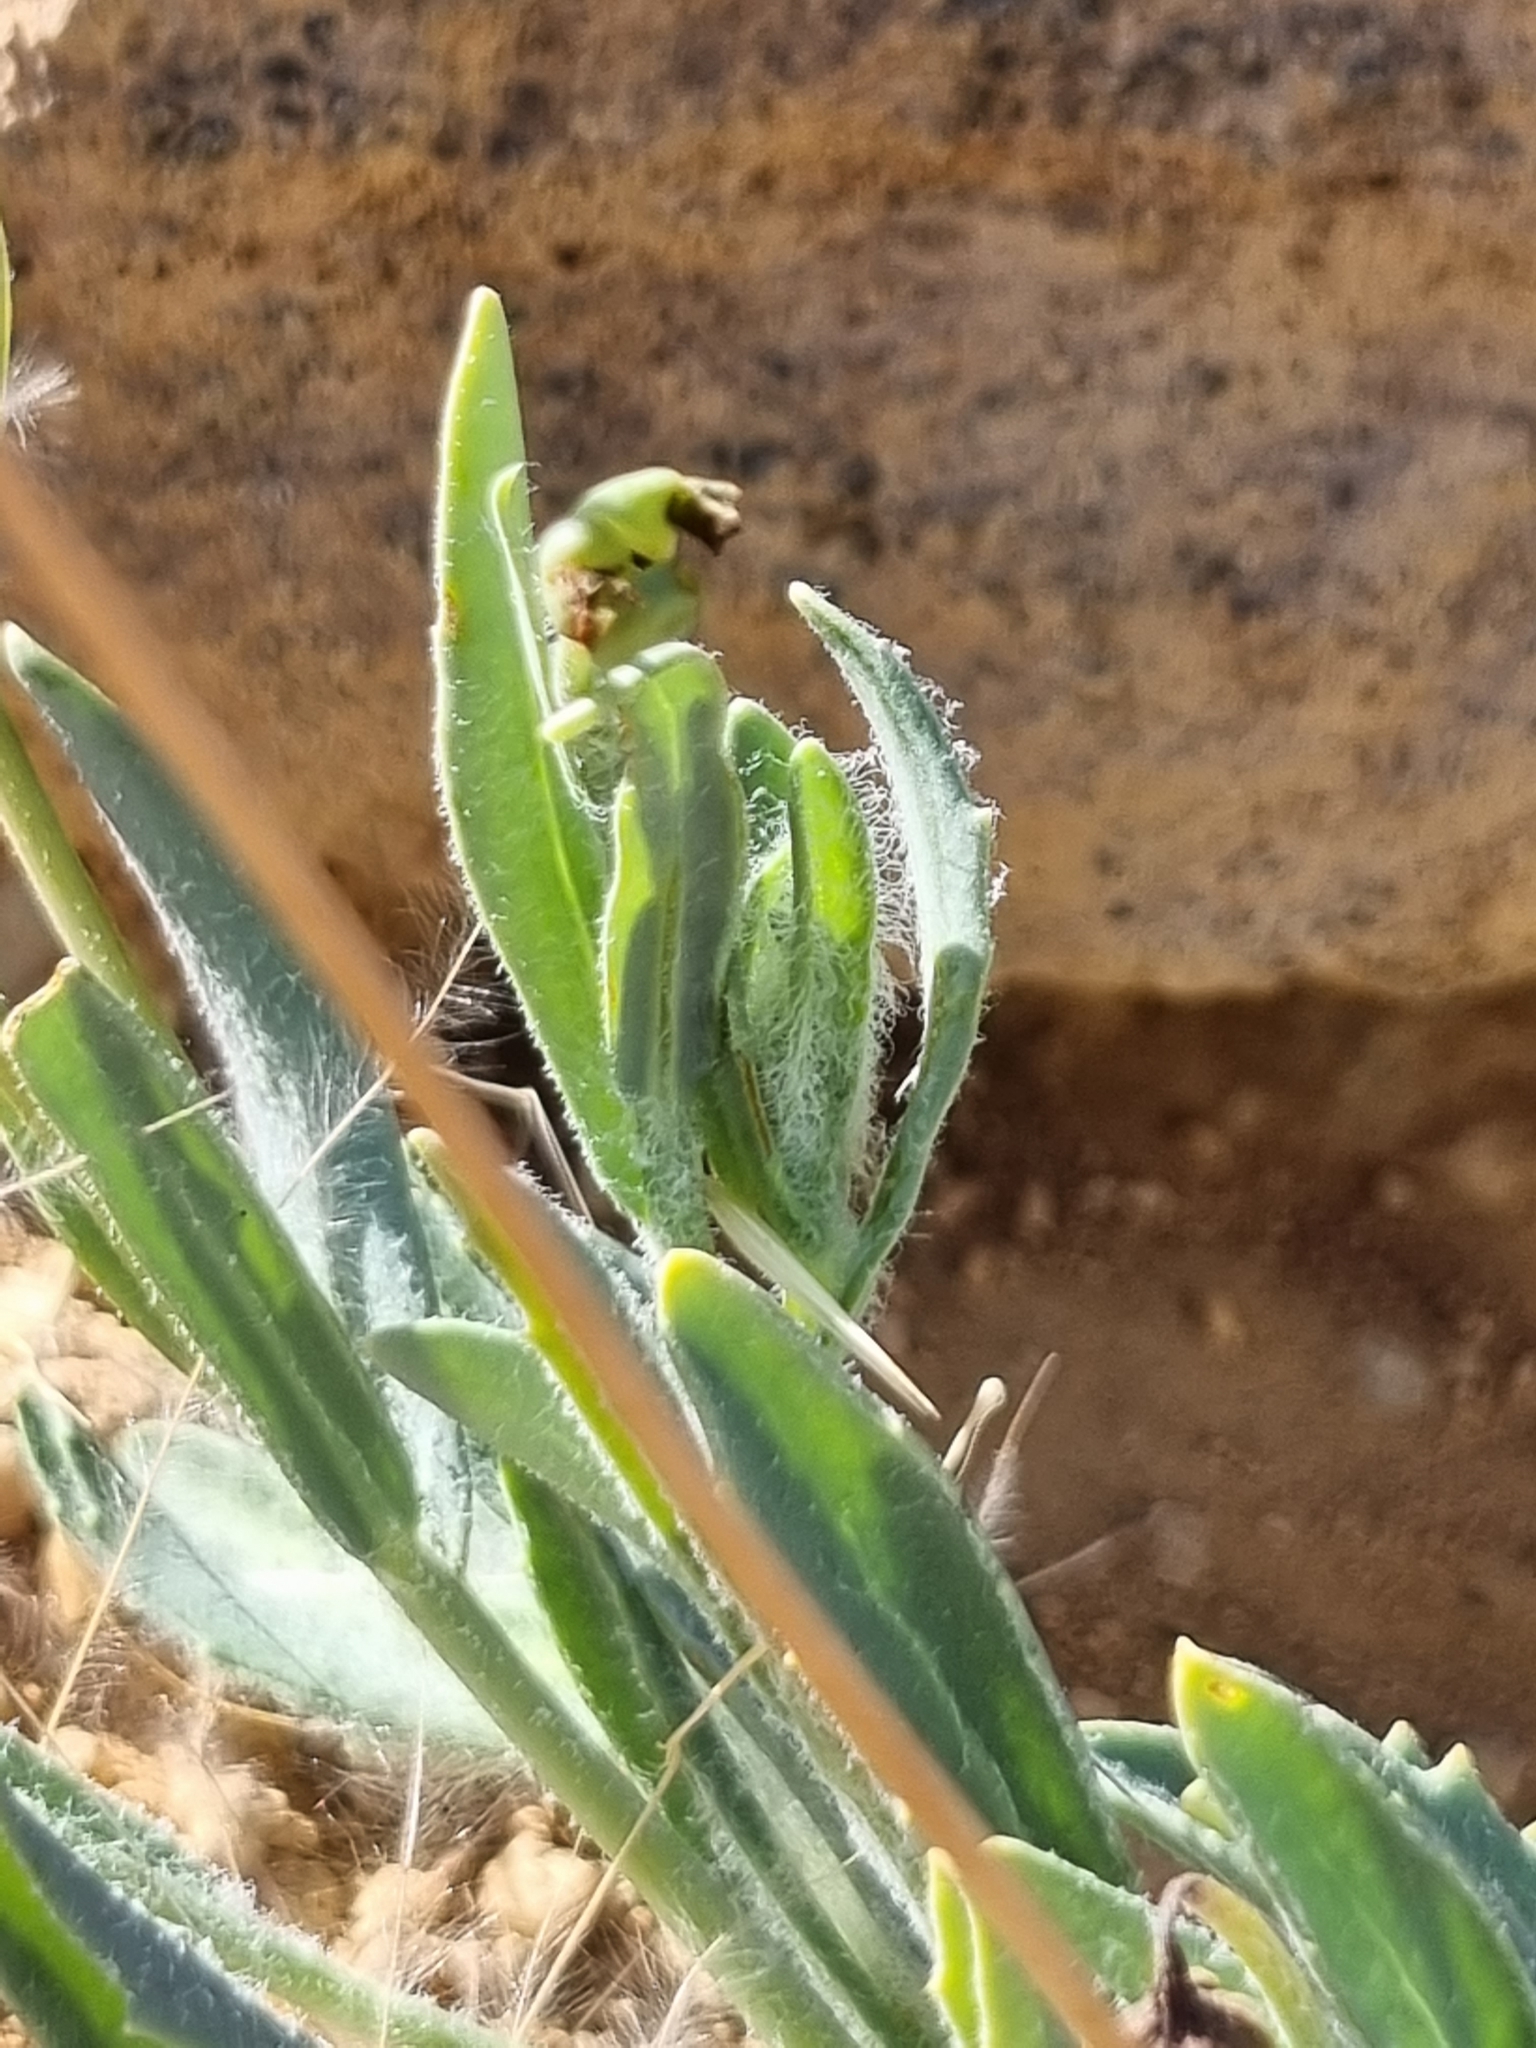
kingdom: Plantae
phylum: Tracheophyta
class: Magnoliopsida
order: Asterales
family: Asteraceae
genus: Emilia
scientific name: Emilia marlothiana
